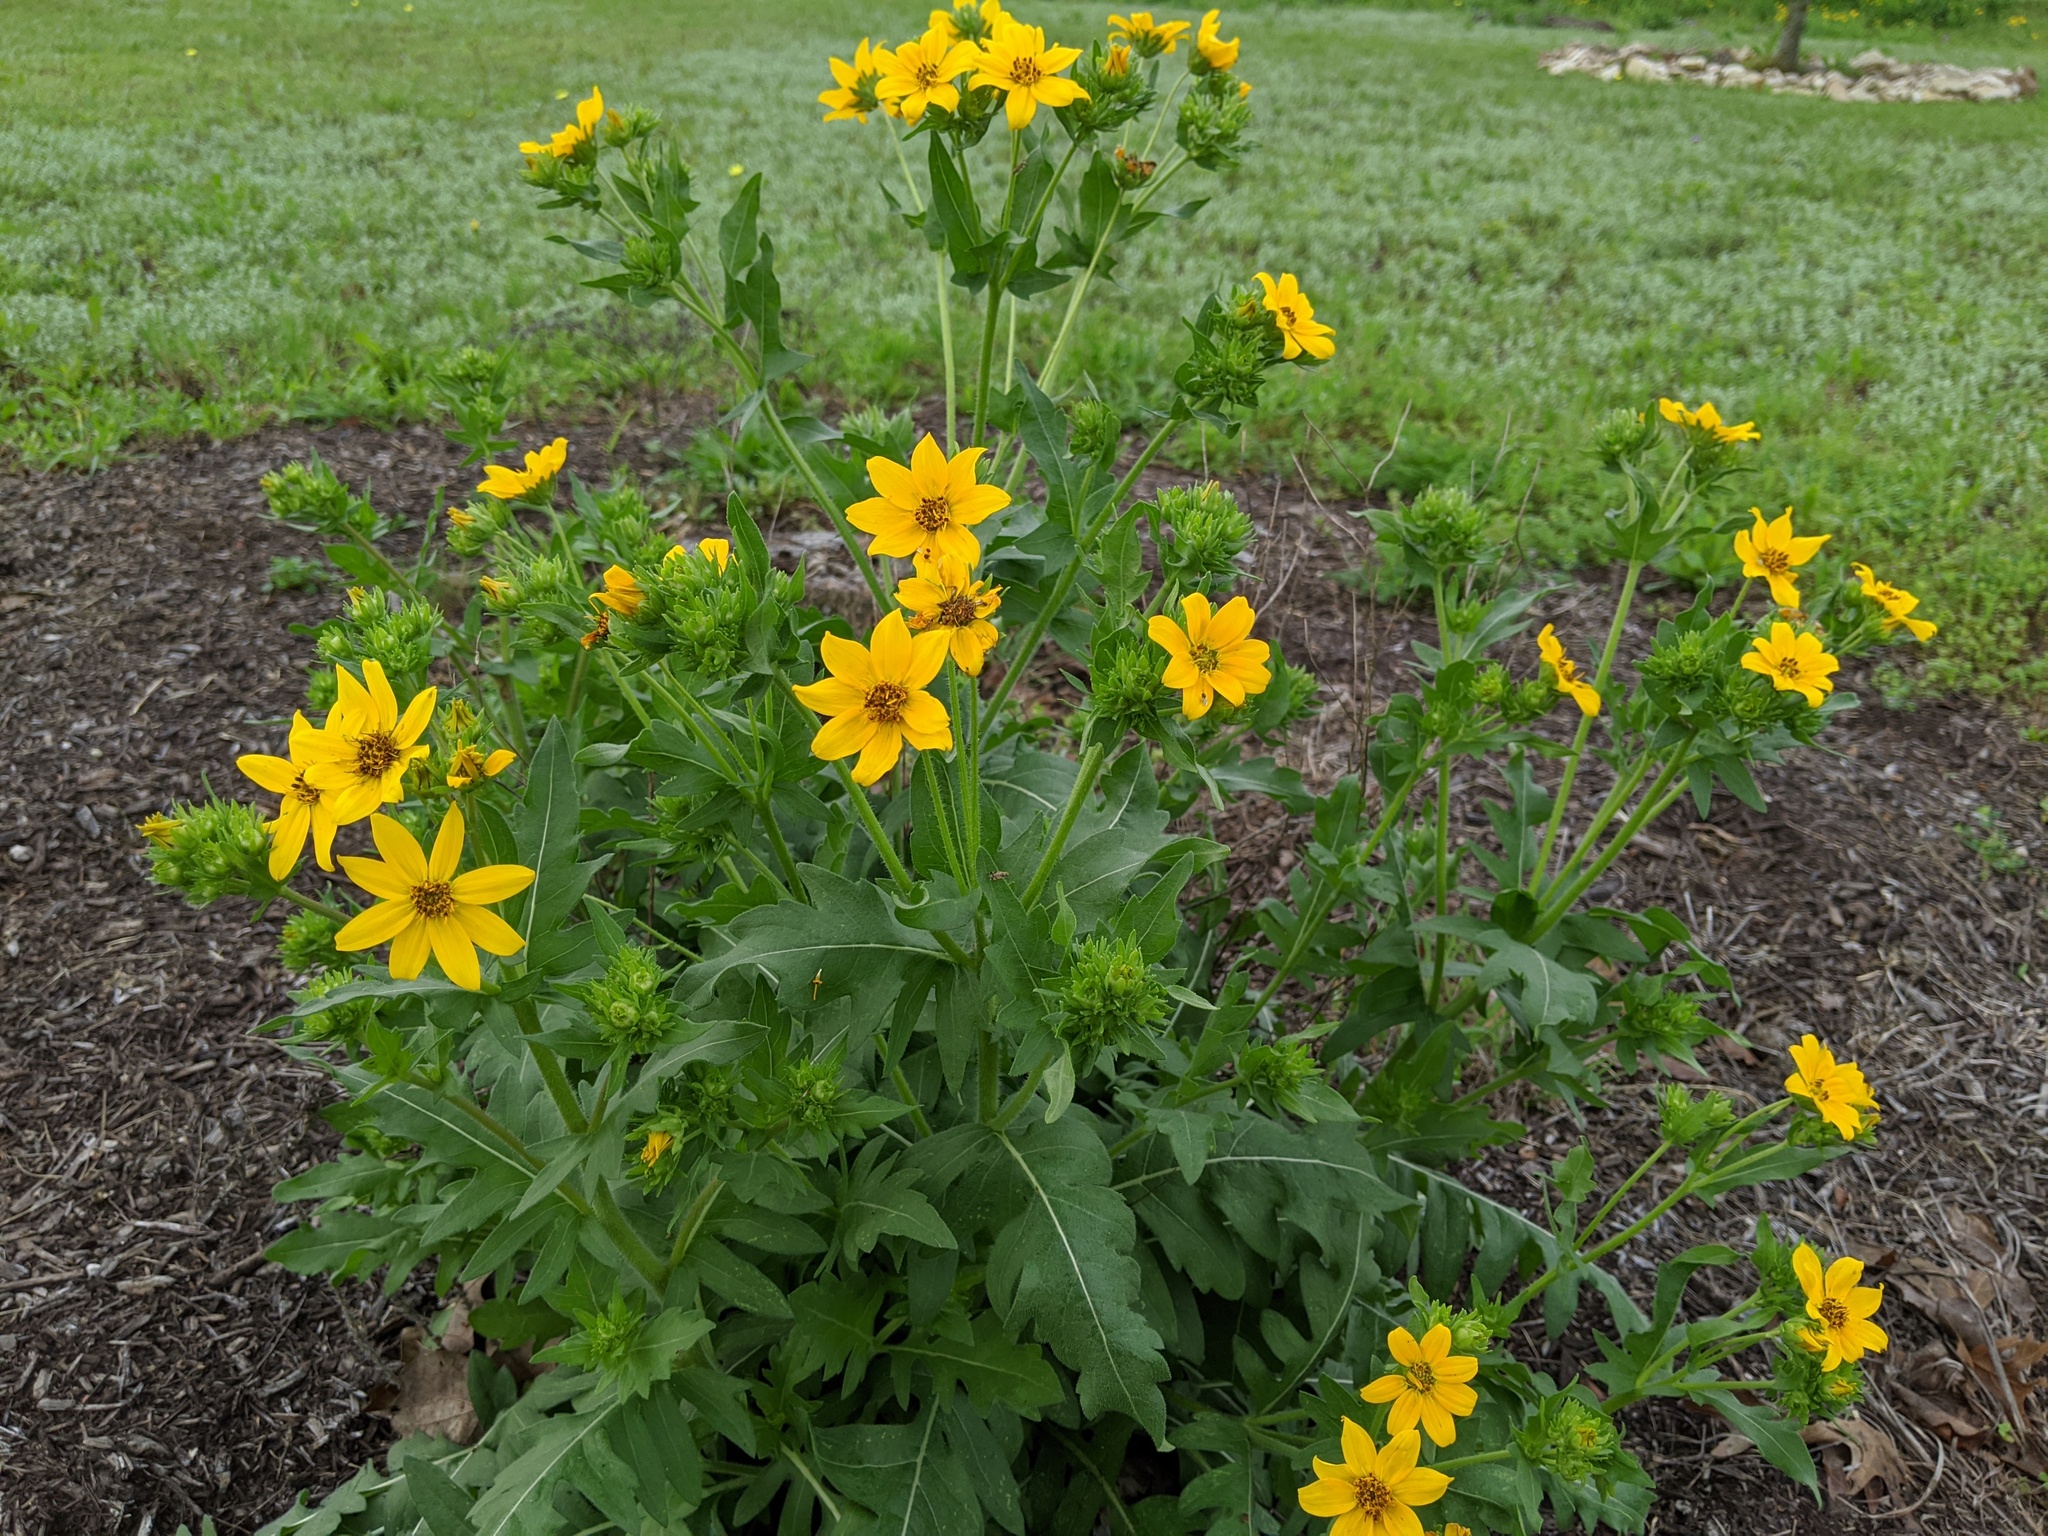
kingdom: Plantae
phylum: Tracheophyta
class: Magnoliopsida
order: Asterales
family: Asteraceae
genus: Engelmannia
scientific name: Engelmannia peristenia
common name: Engelmann's daisy
